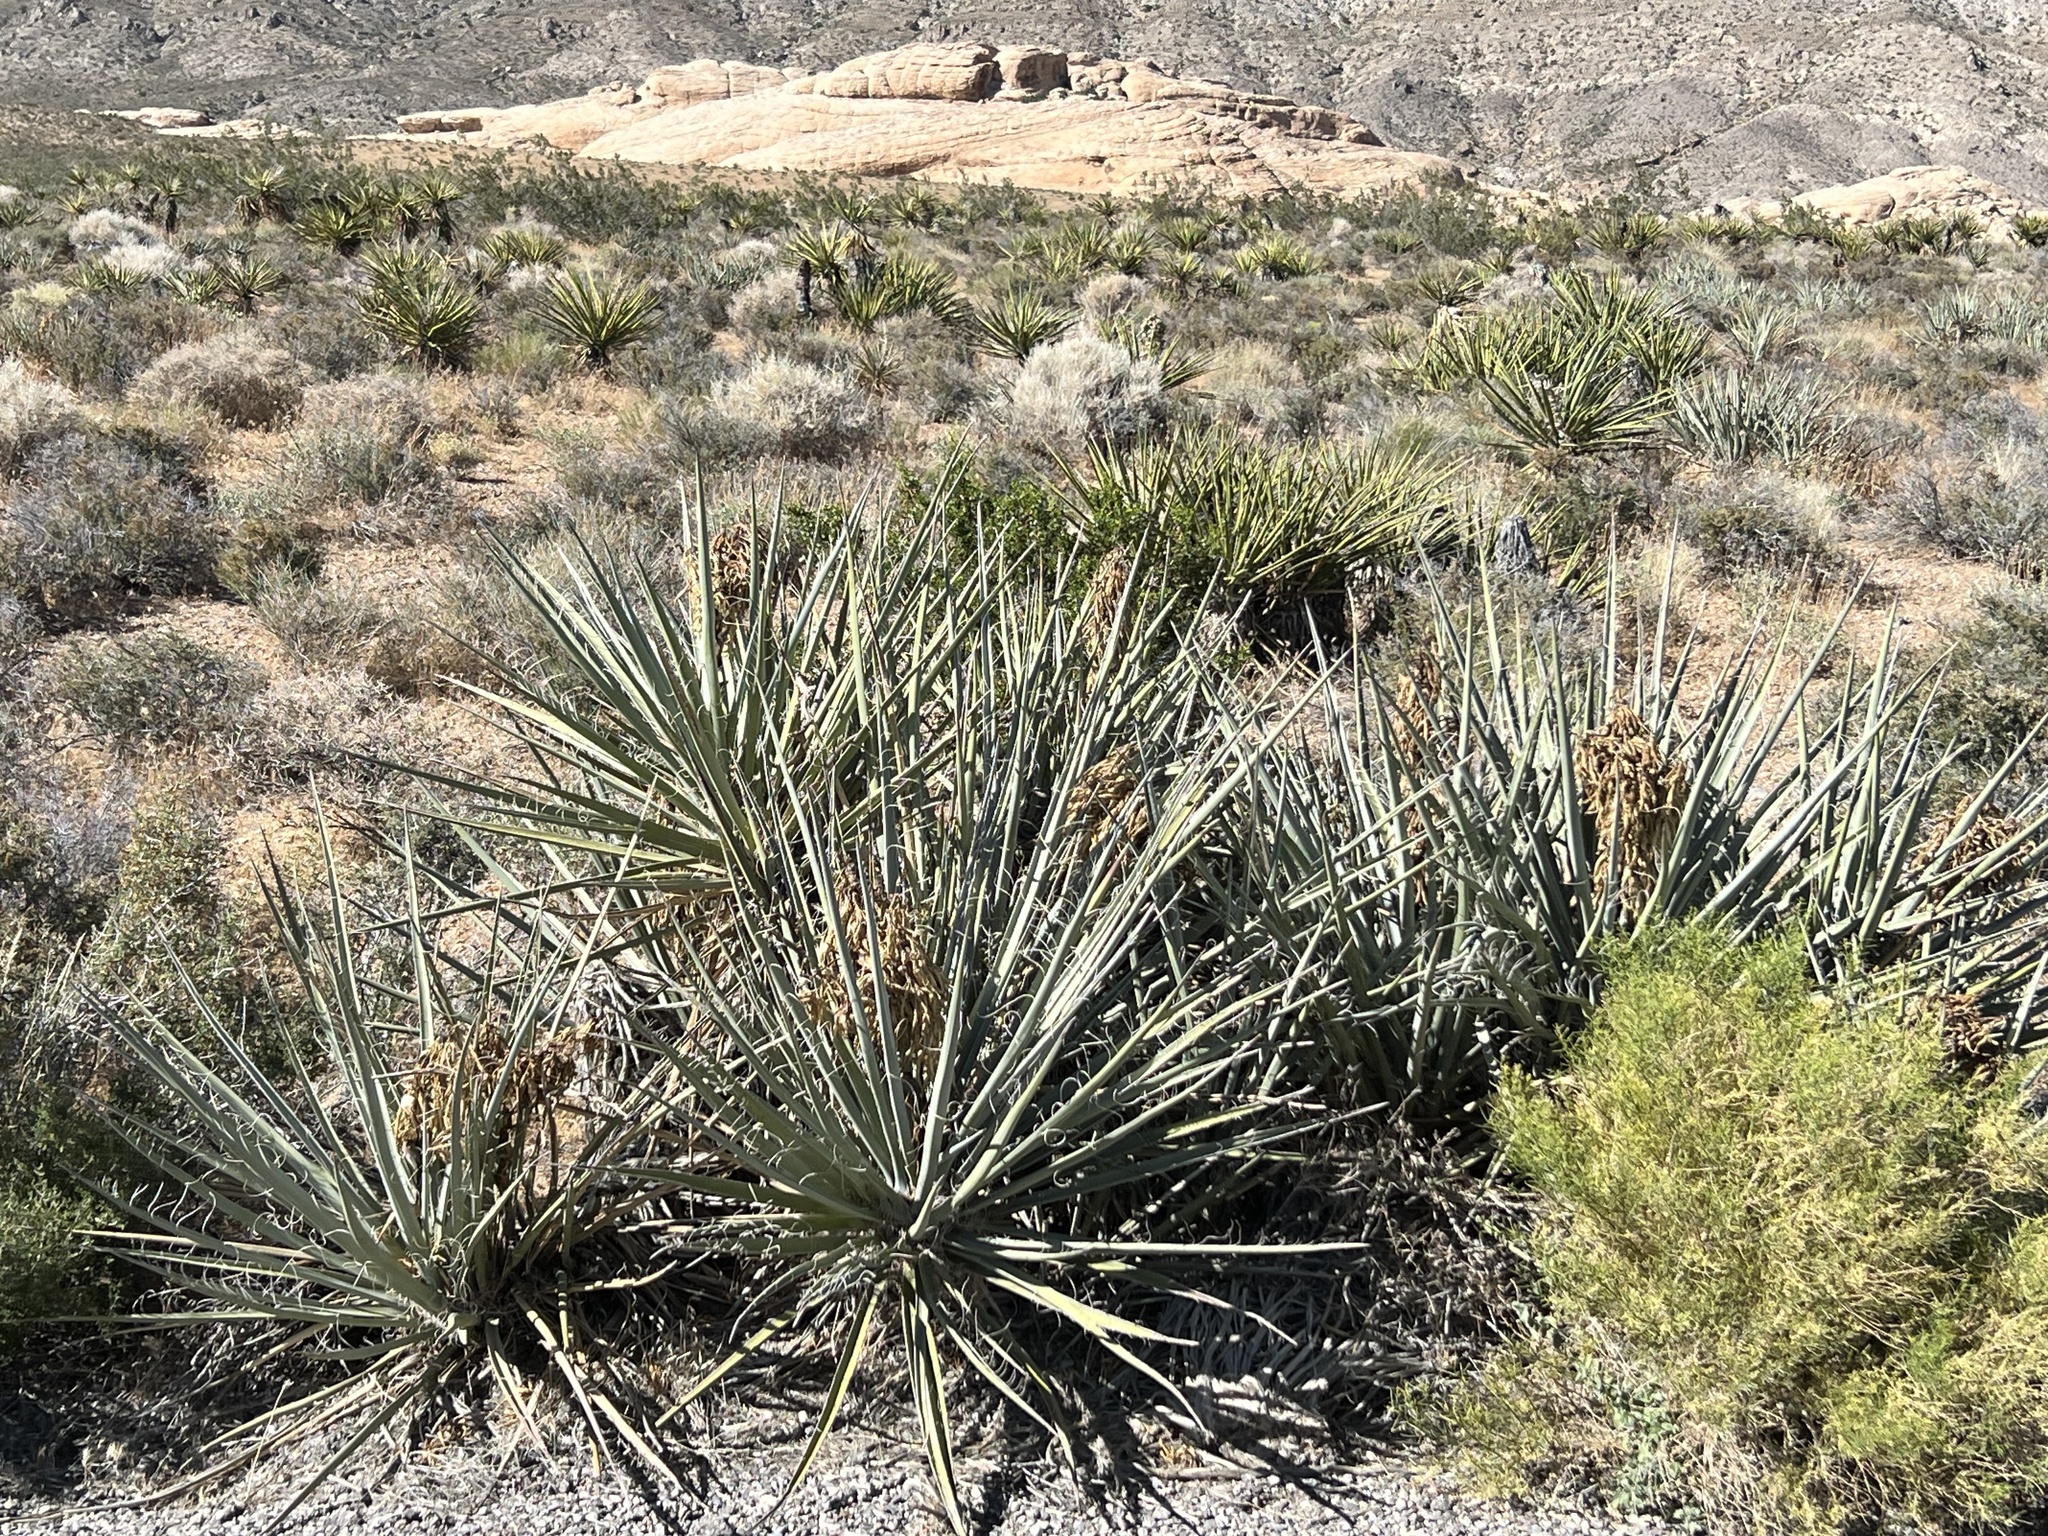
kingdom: Plantae
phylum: Tracheophyta
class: Liliopsida
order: Asparagales
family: Asparagaceae
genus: Yucca
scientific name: Yucca baccata
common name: Banana yucca
